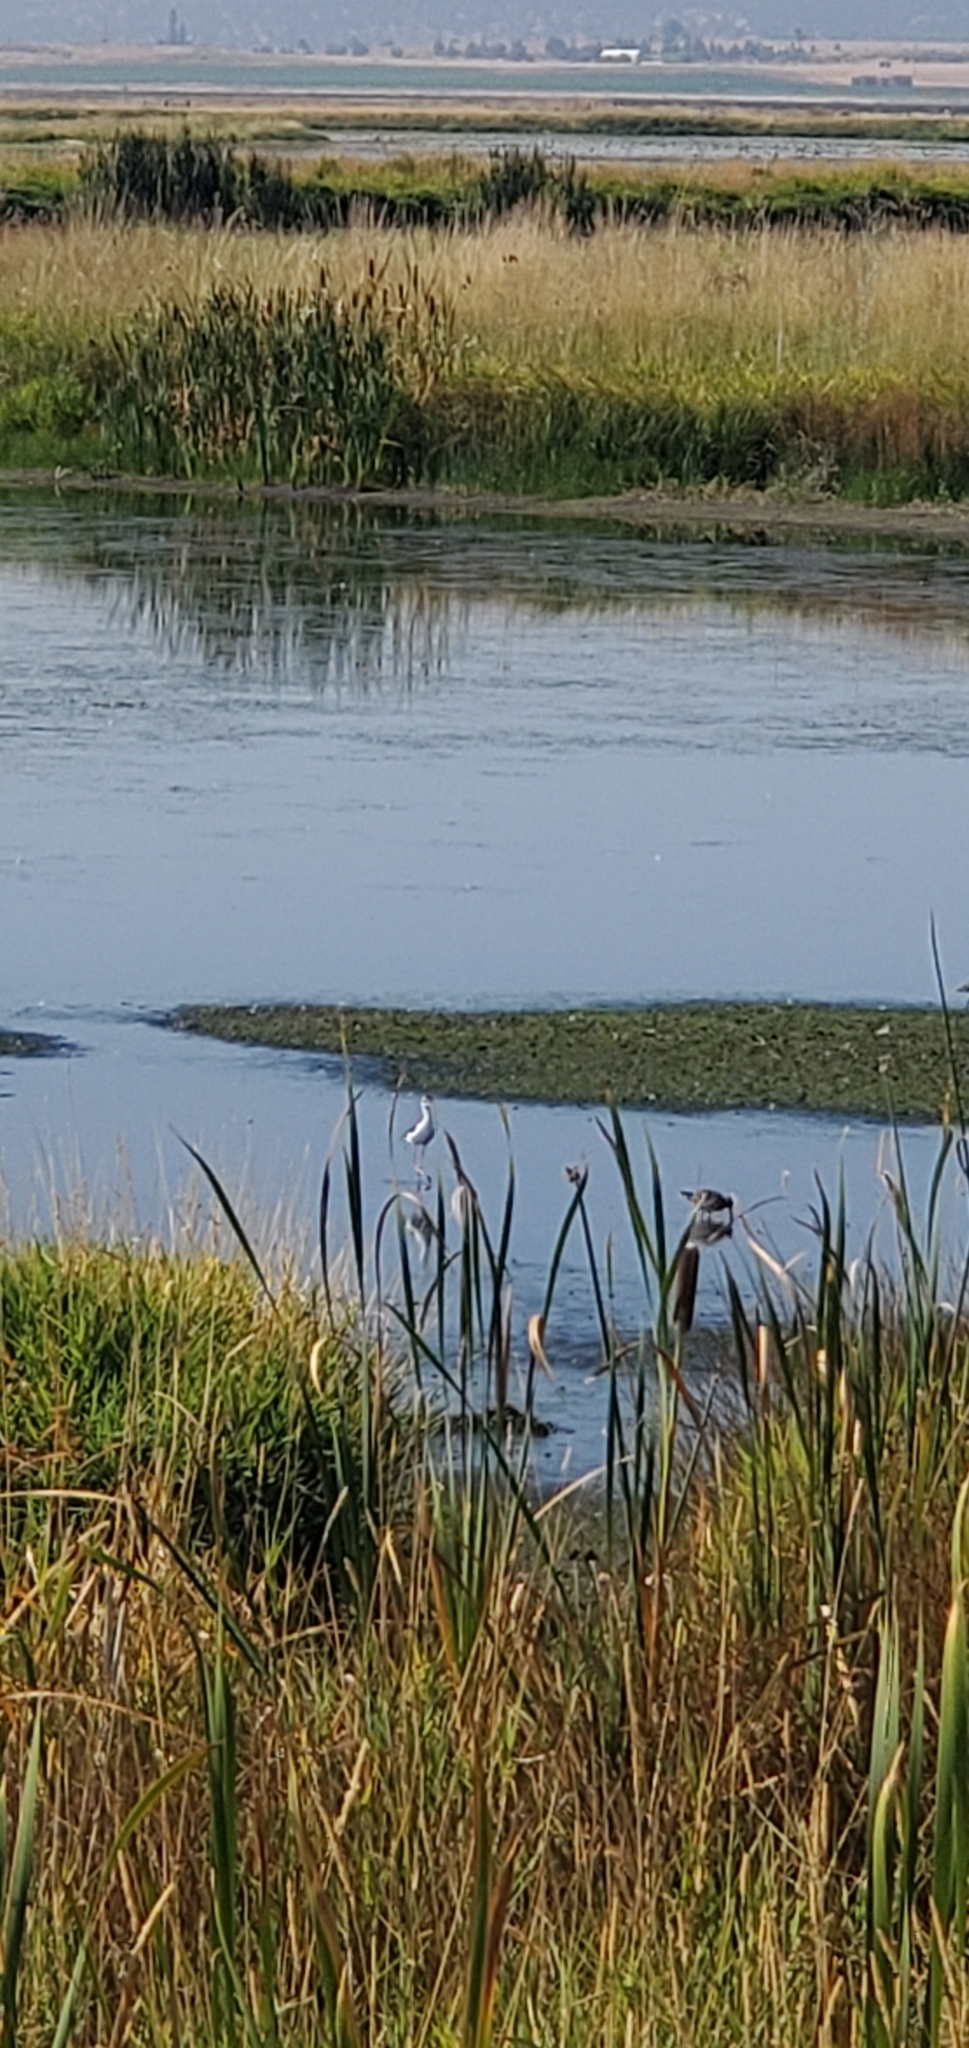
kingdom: Animalia
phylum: Chordata
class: Aves
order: Charadriiformes
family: Recurvirostridae
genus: Himantopus
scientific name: Himantopus mexicanus
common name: Black-necked stilt
